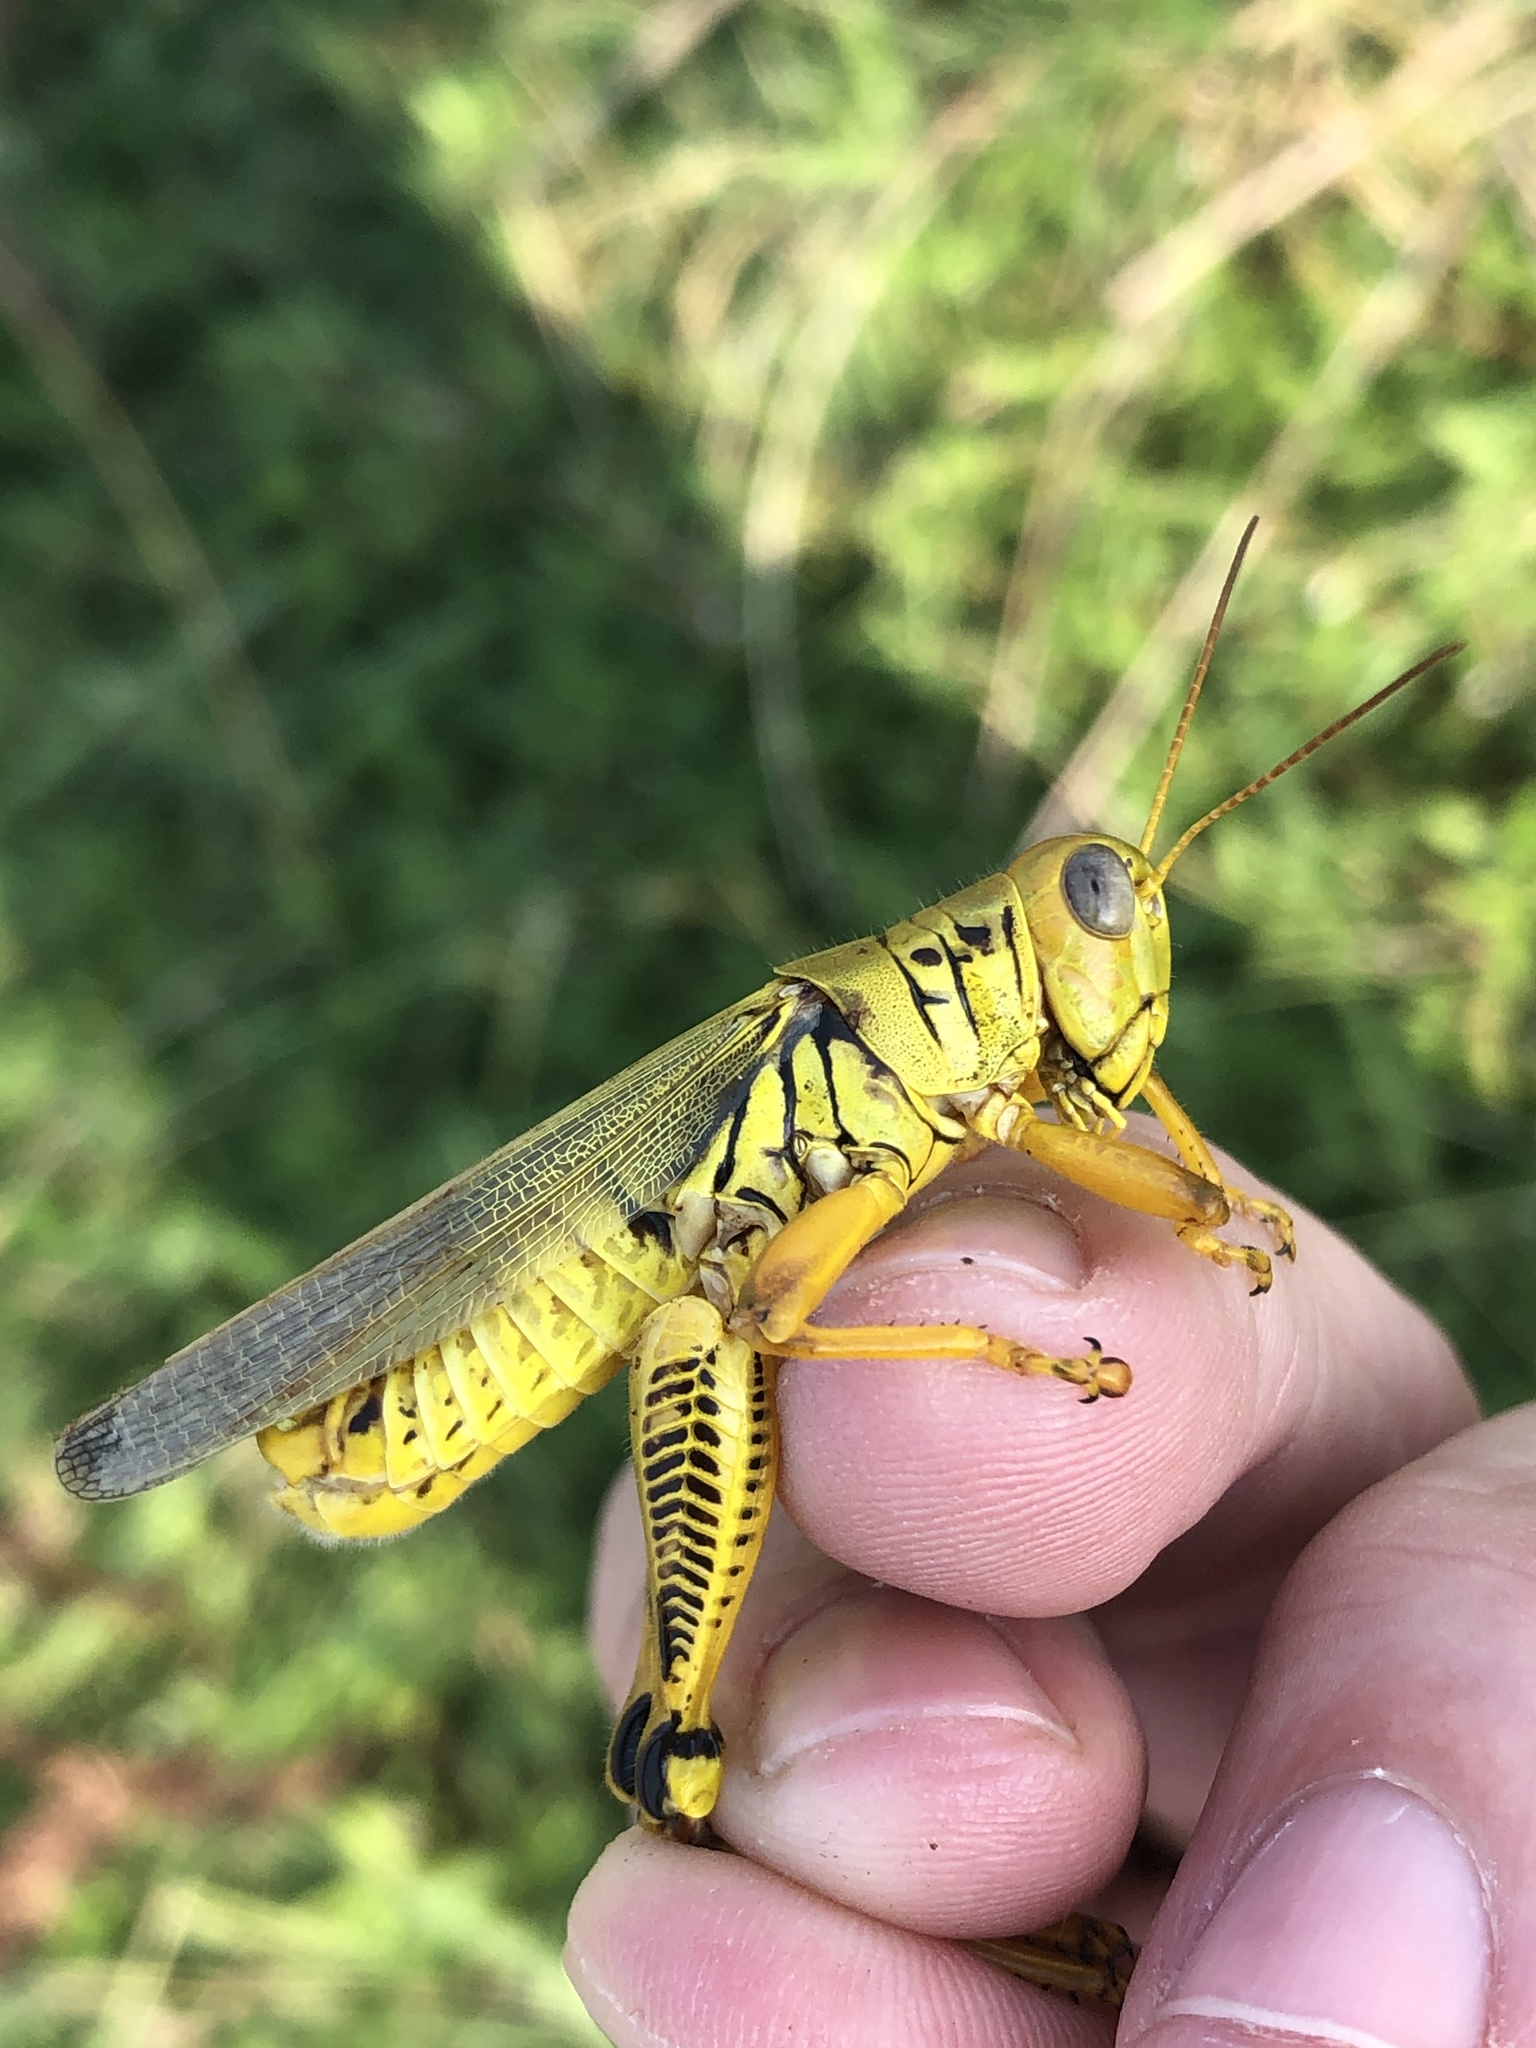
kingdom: Animalia
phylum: Arthropoda
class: Insecta
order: Orthoptera
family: Acrididae
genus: Melanoplus
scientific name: Melanoplus differentialis
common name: Differential grasshopper
